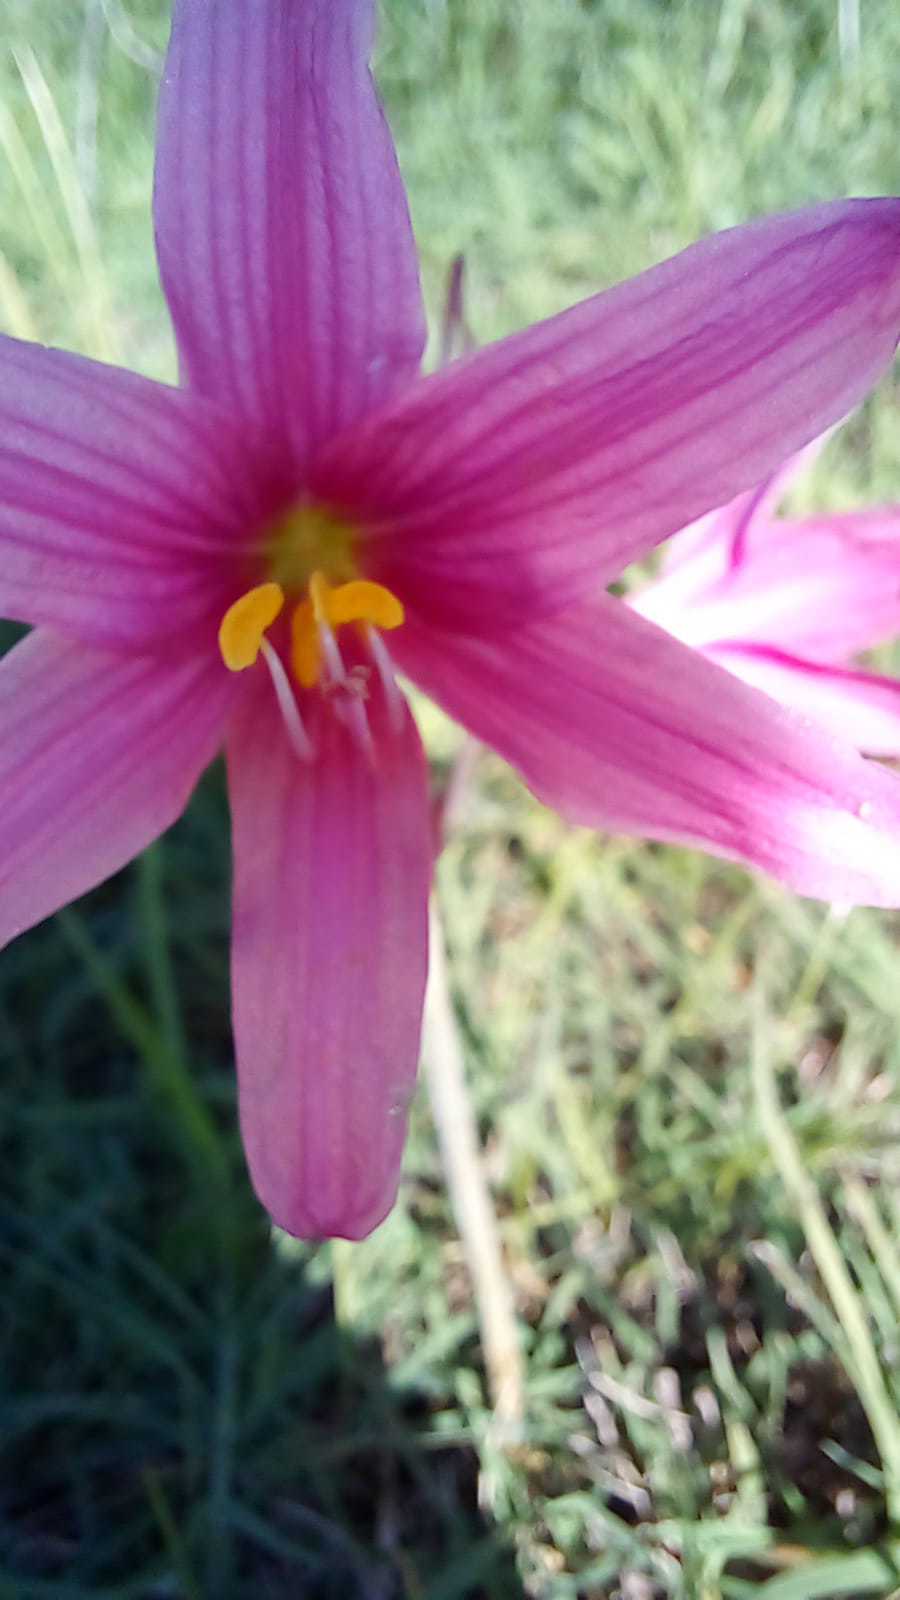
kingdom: Plantae
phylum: Tracheophyta
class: Liliopsida
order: Asparagales
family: Amaryllidaceae
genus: Zephyranthes
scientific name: Zephyranthes bifida
